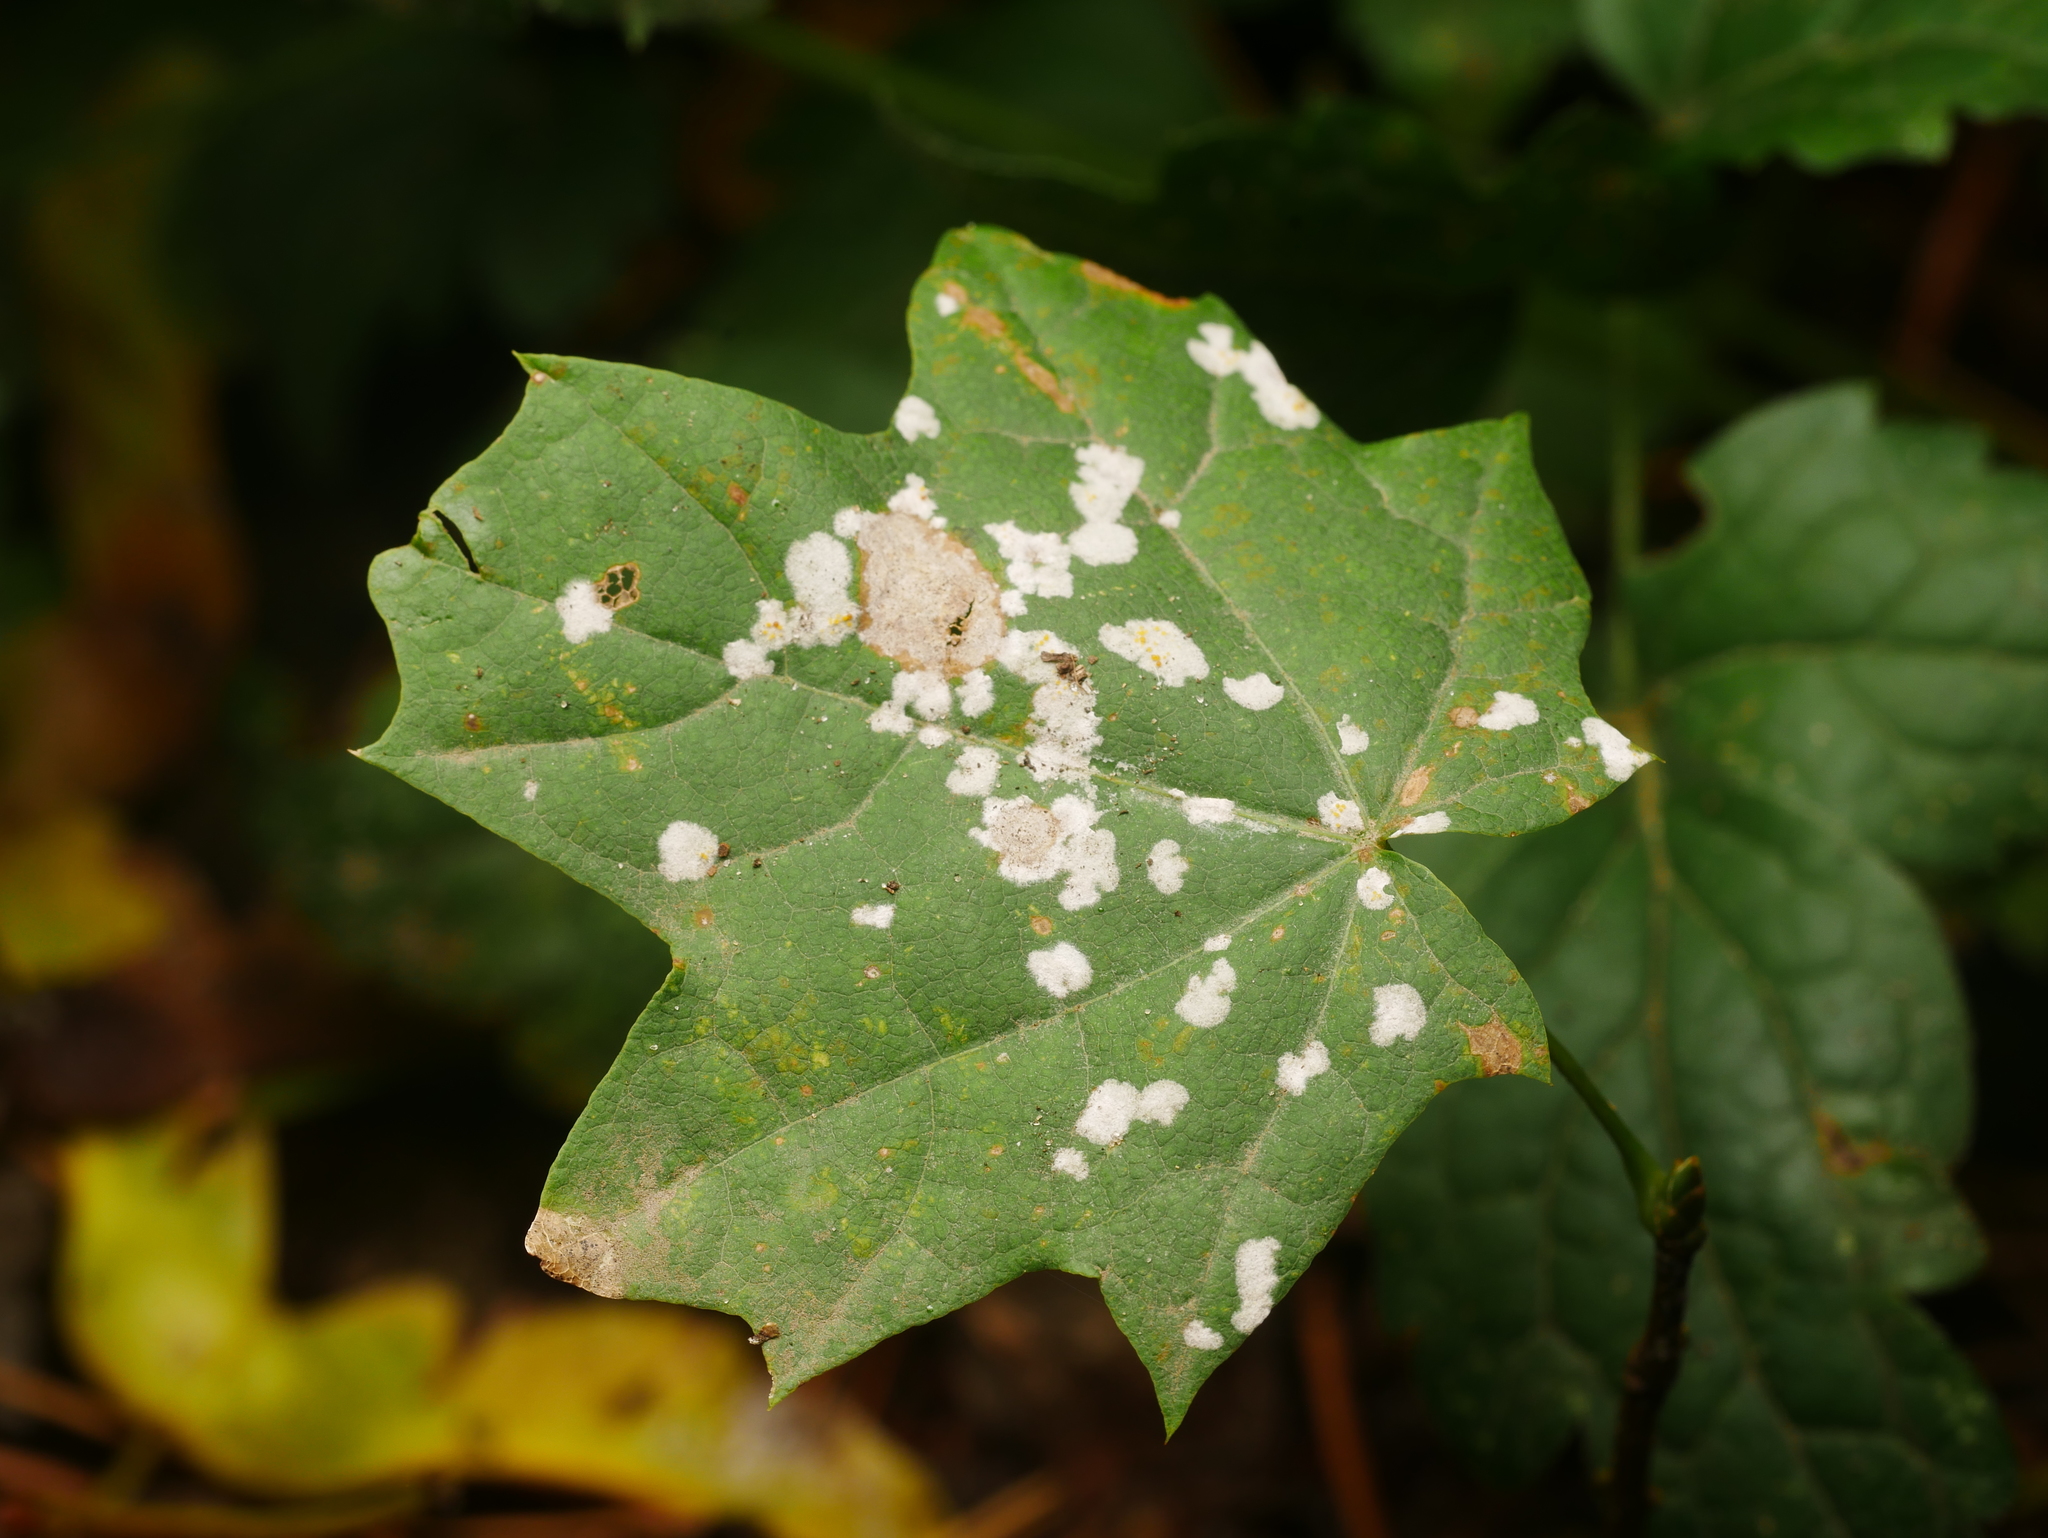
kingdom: Fungi
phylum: Ascomycota
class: Leotiomycetes
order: Helotiales
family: Erysiphaceae
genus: Sawadaea
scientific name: Sawadaea tulasnei
